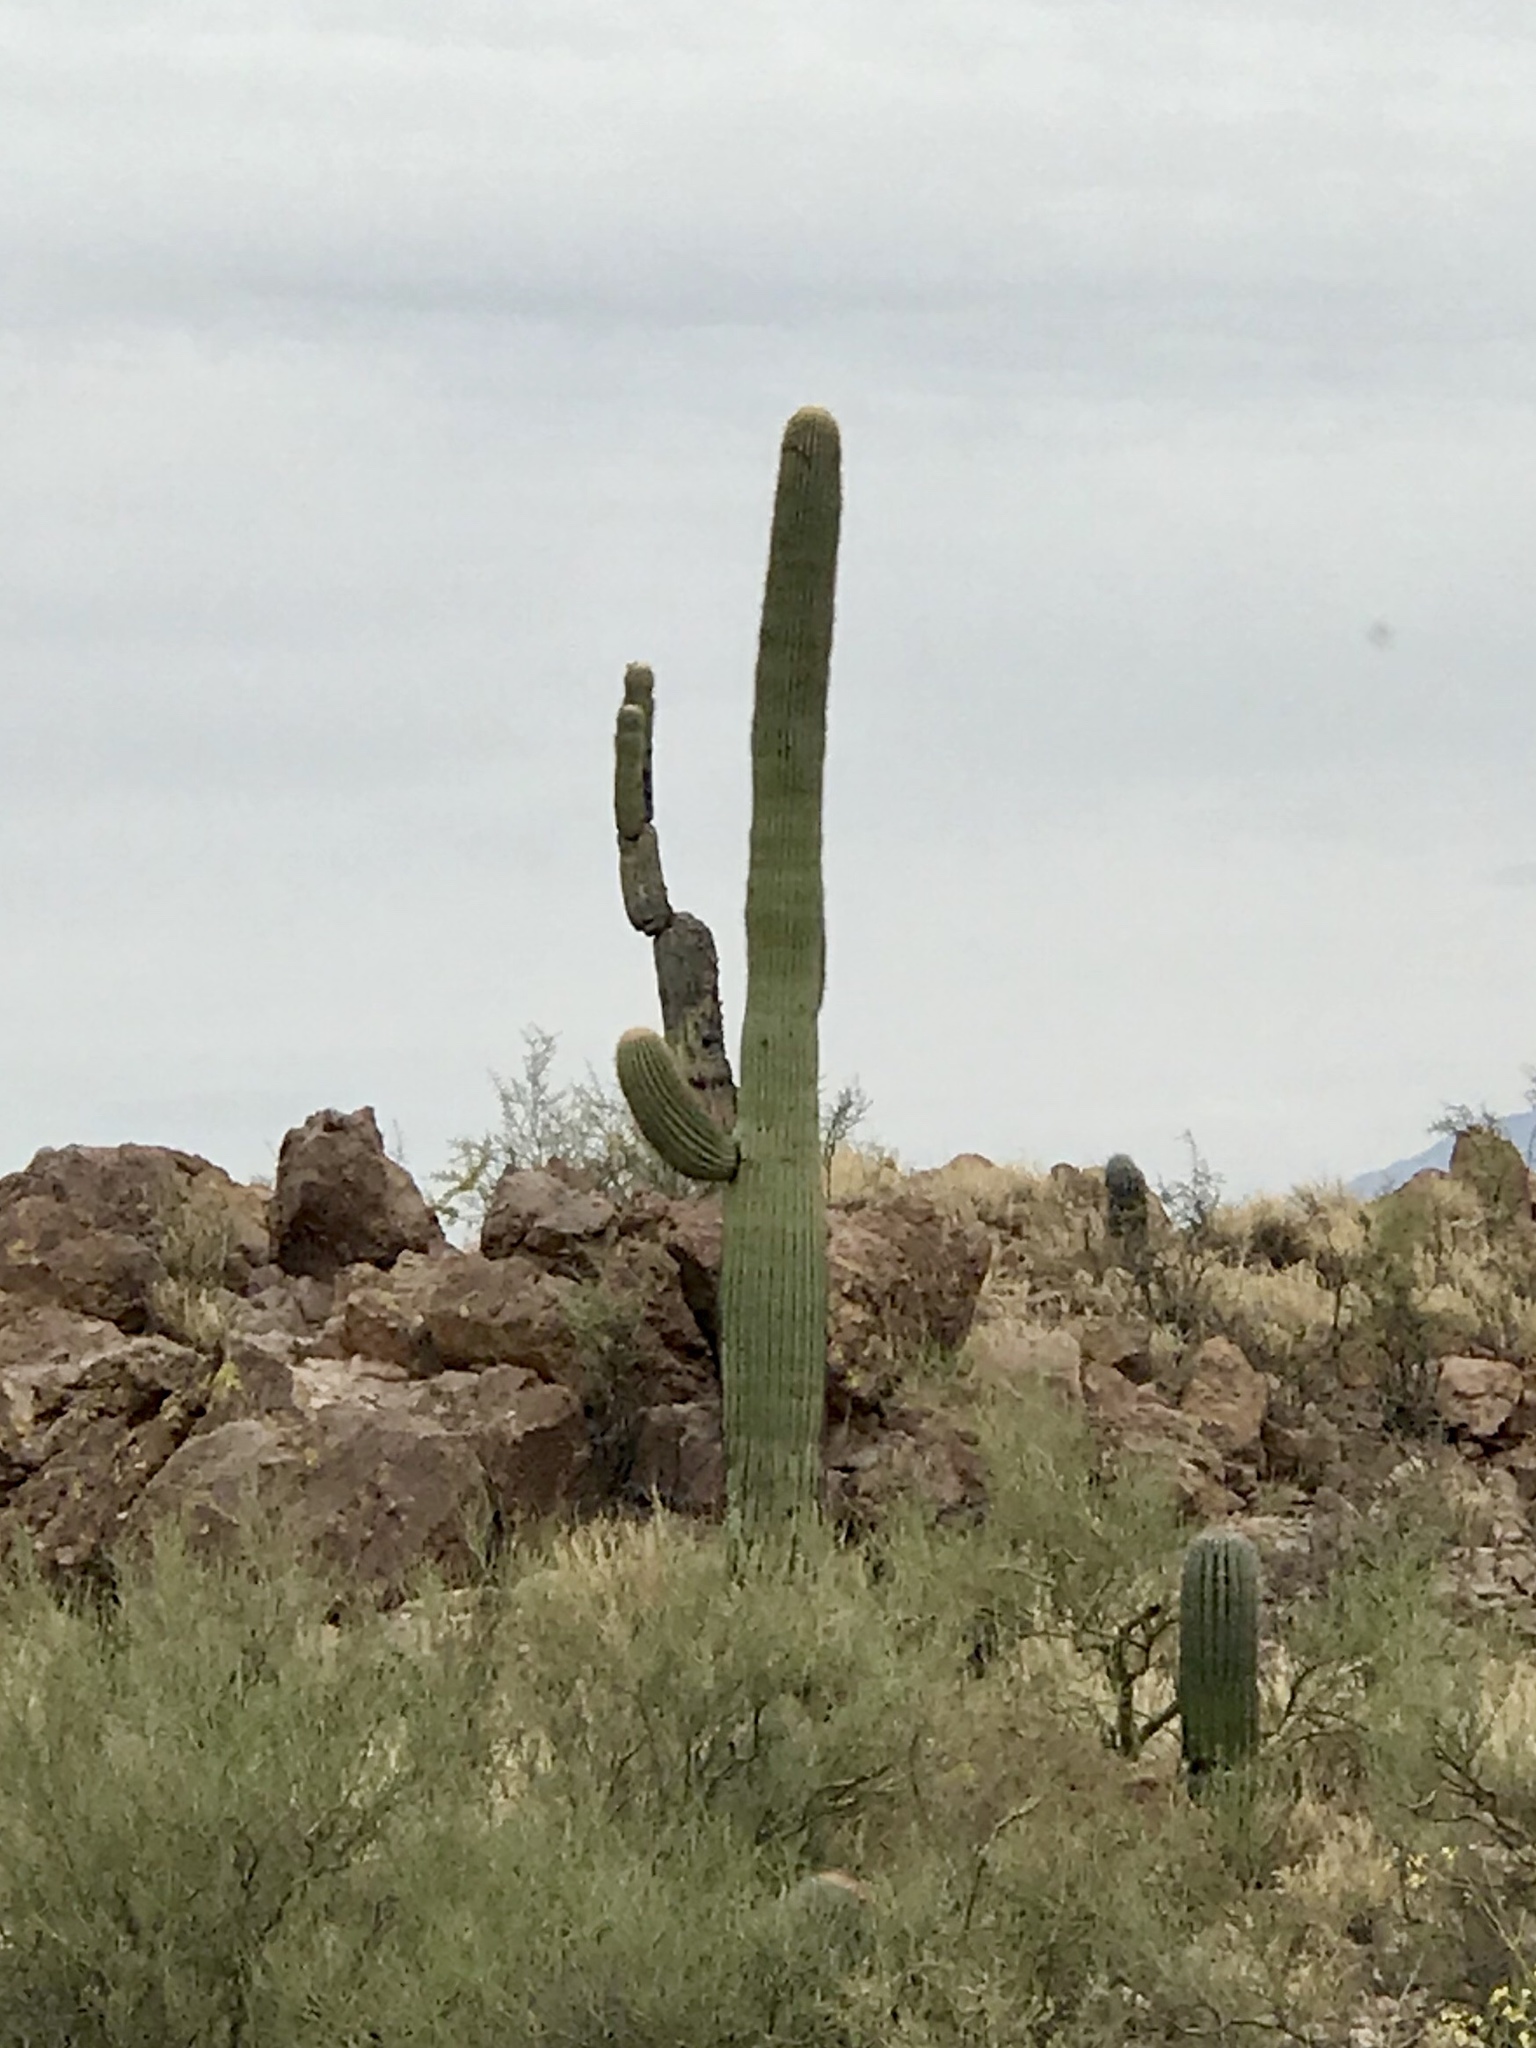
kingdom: Plantae
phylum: Tracheophyta
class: Magnoliopsida
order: Caryophyllales
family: Cactaceae
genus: Carnegiea
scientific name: Carnegiea gigantea
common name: Saguaro
